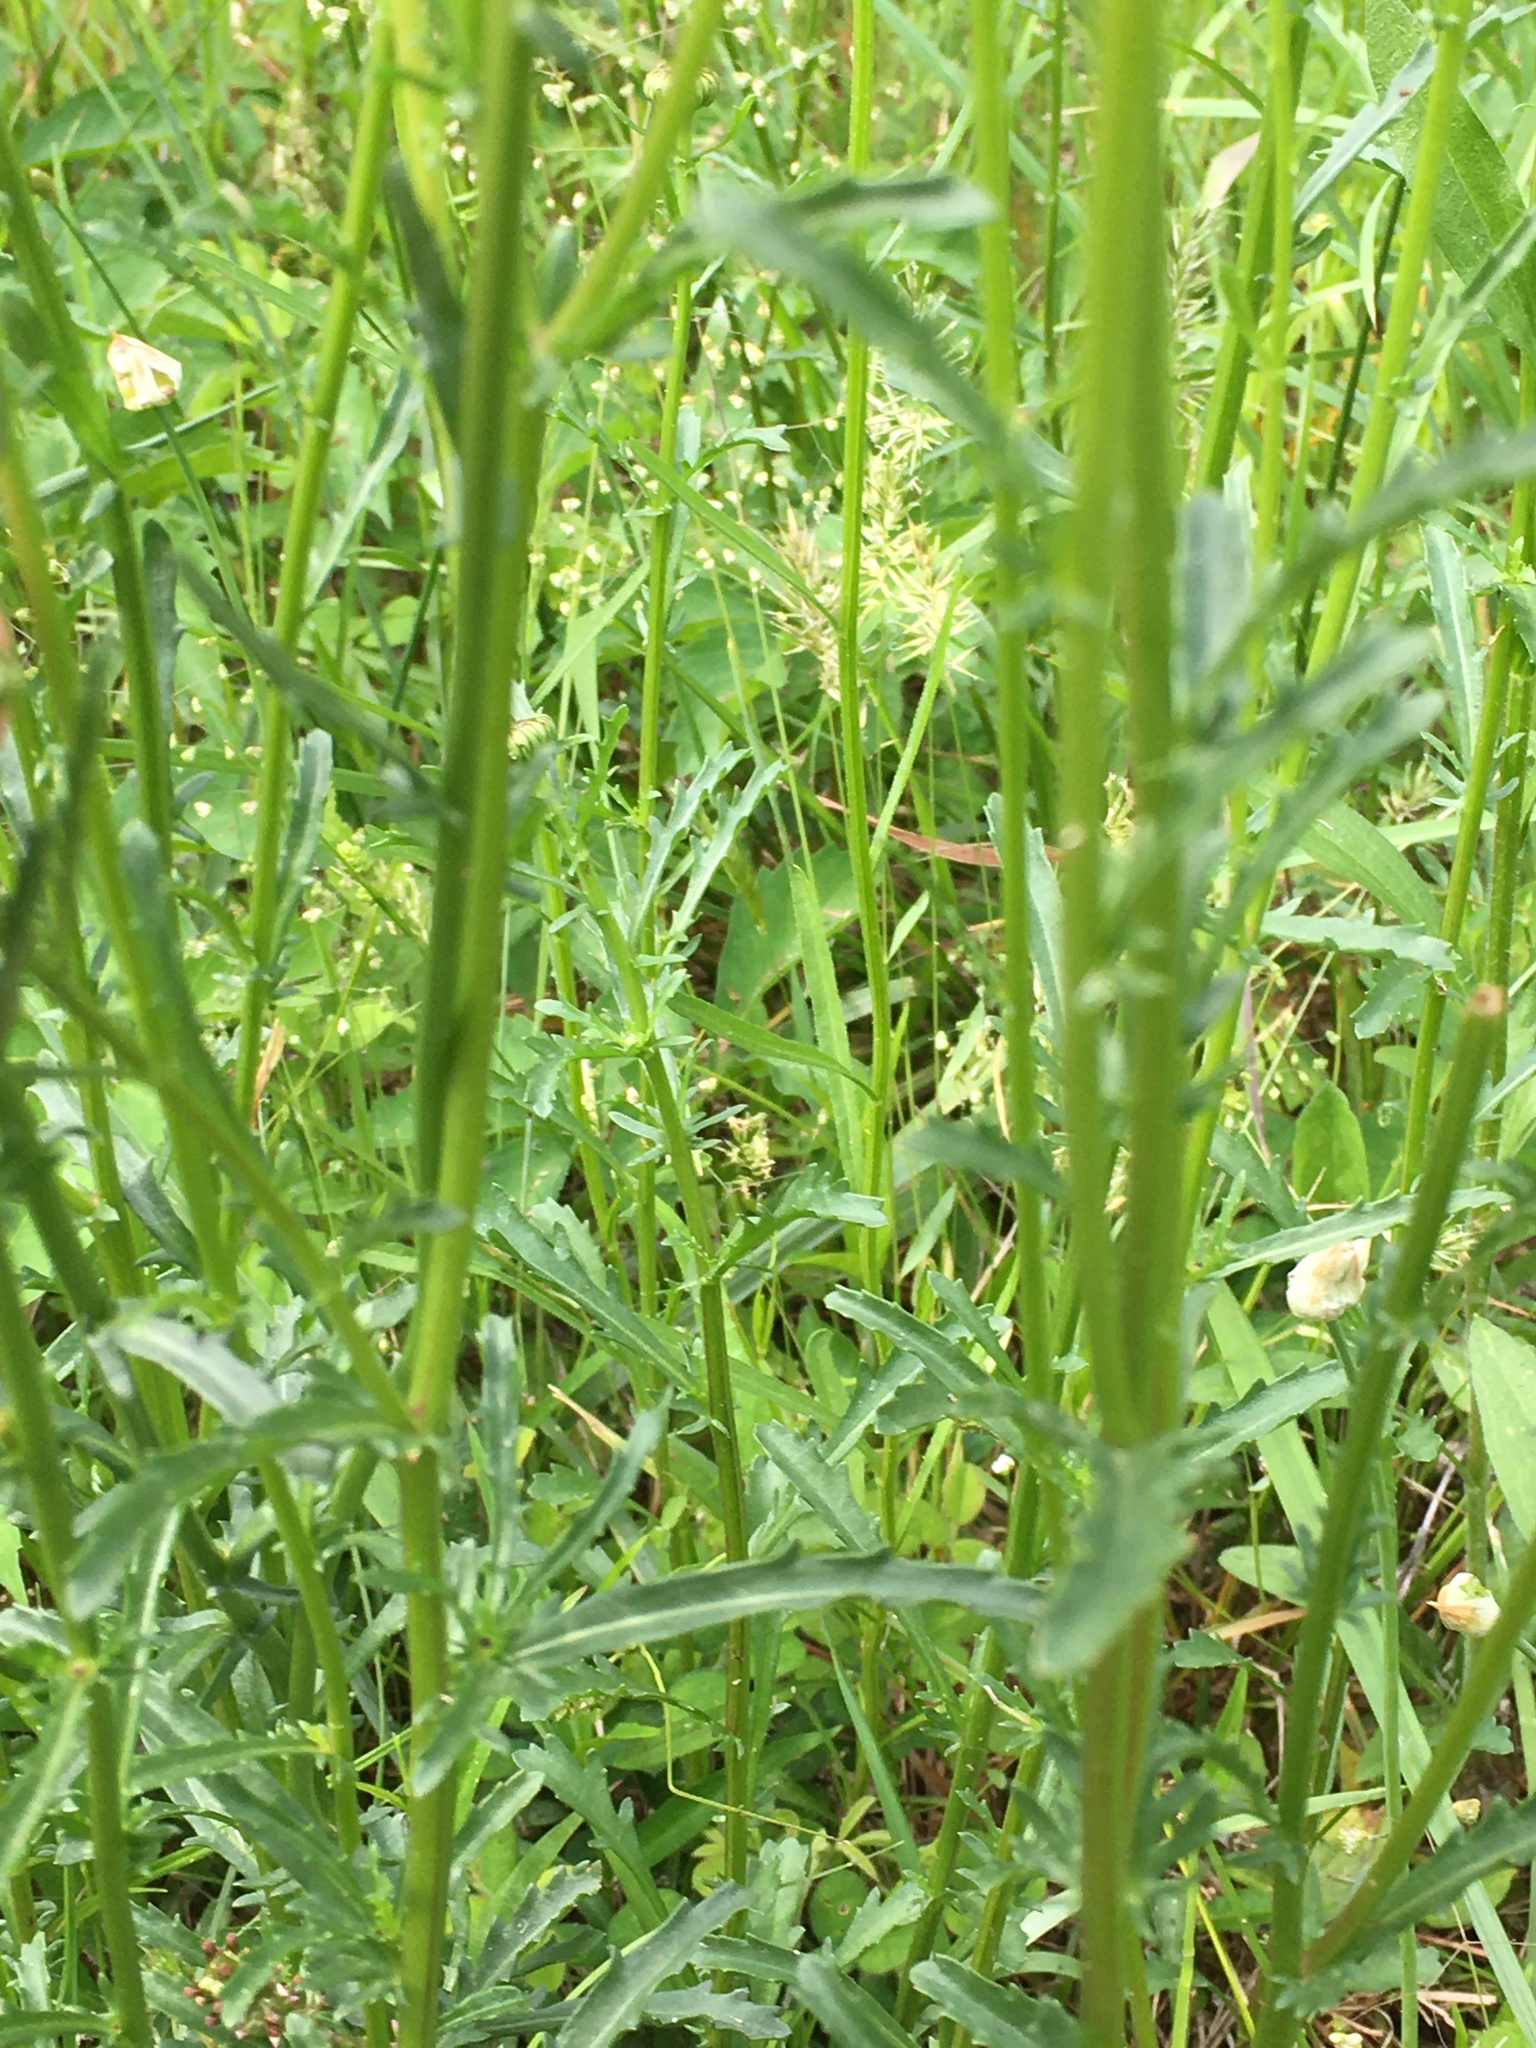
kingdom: Plantae
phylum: Tracheophyta
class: Magnoliopsida
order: Asterales
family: Asteraceae
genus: Leucanthemum
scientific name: Leucanthemum vulgare
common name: Oxeye daisy
